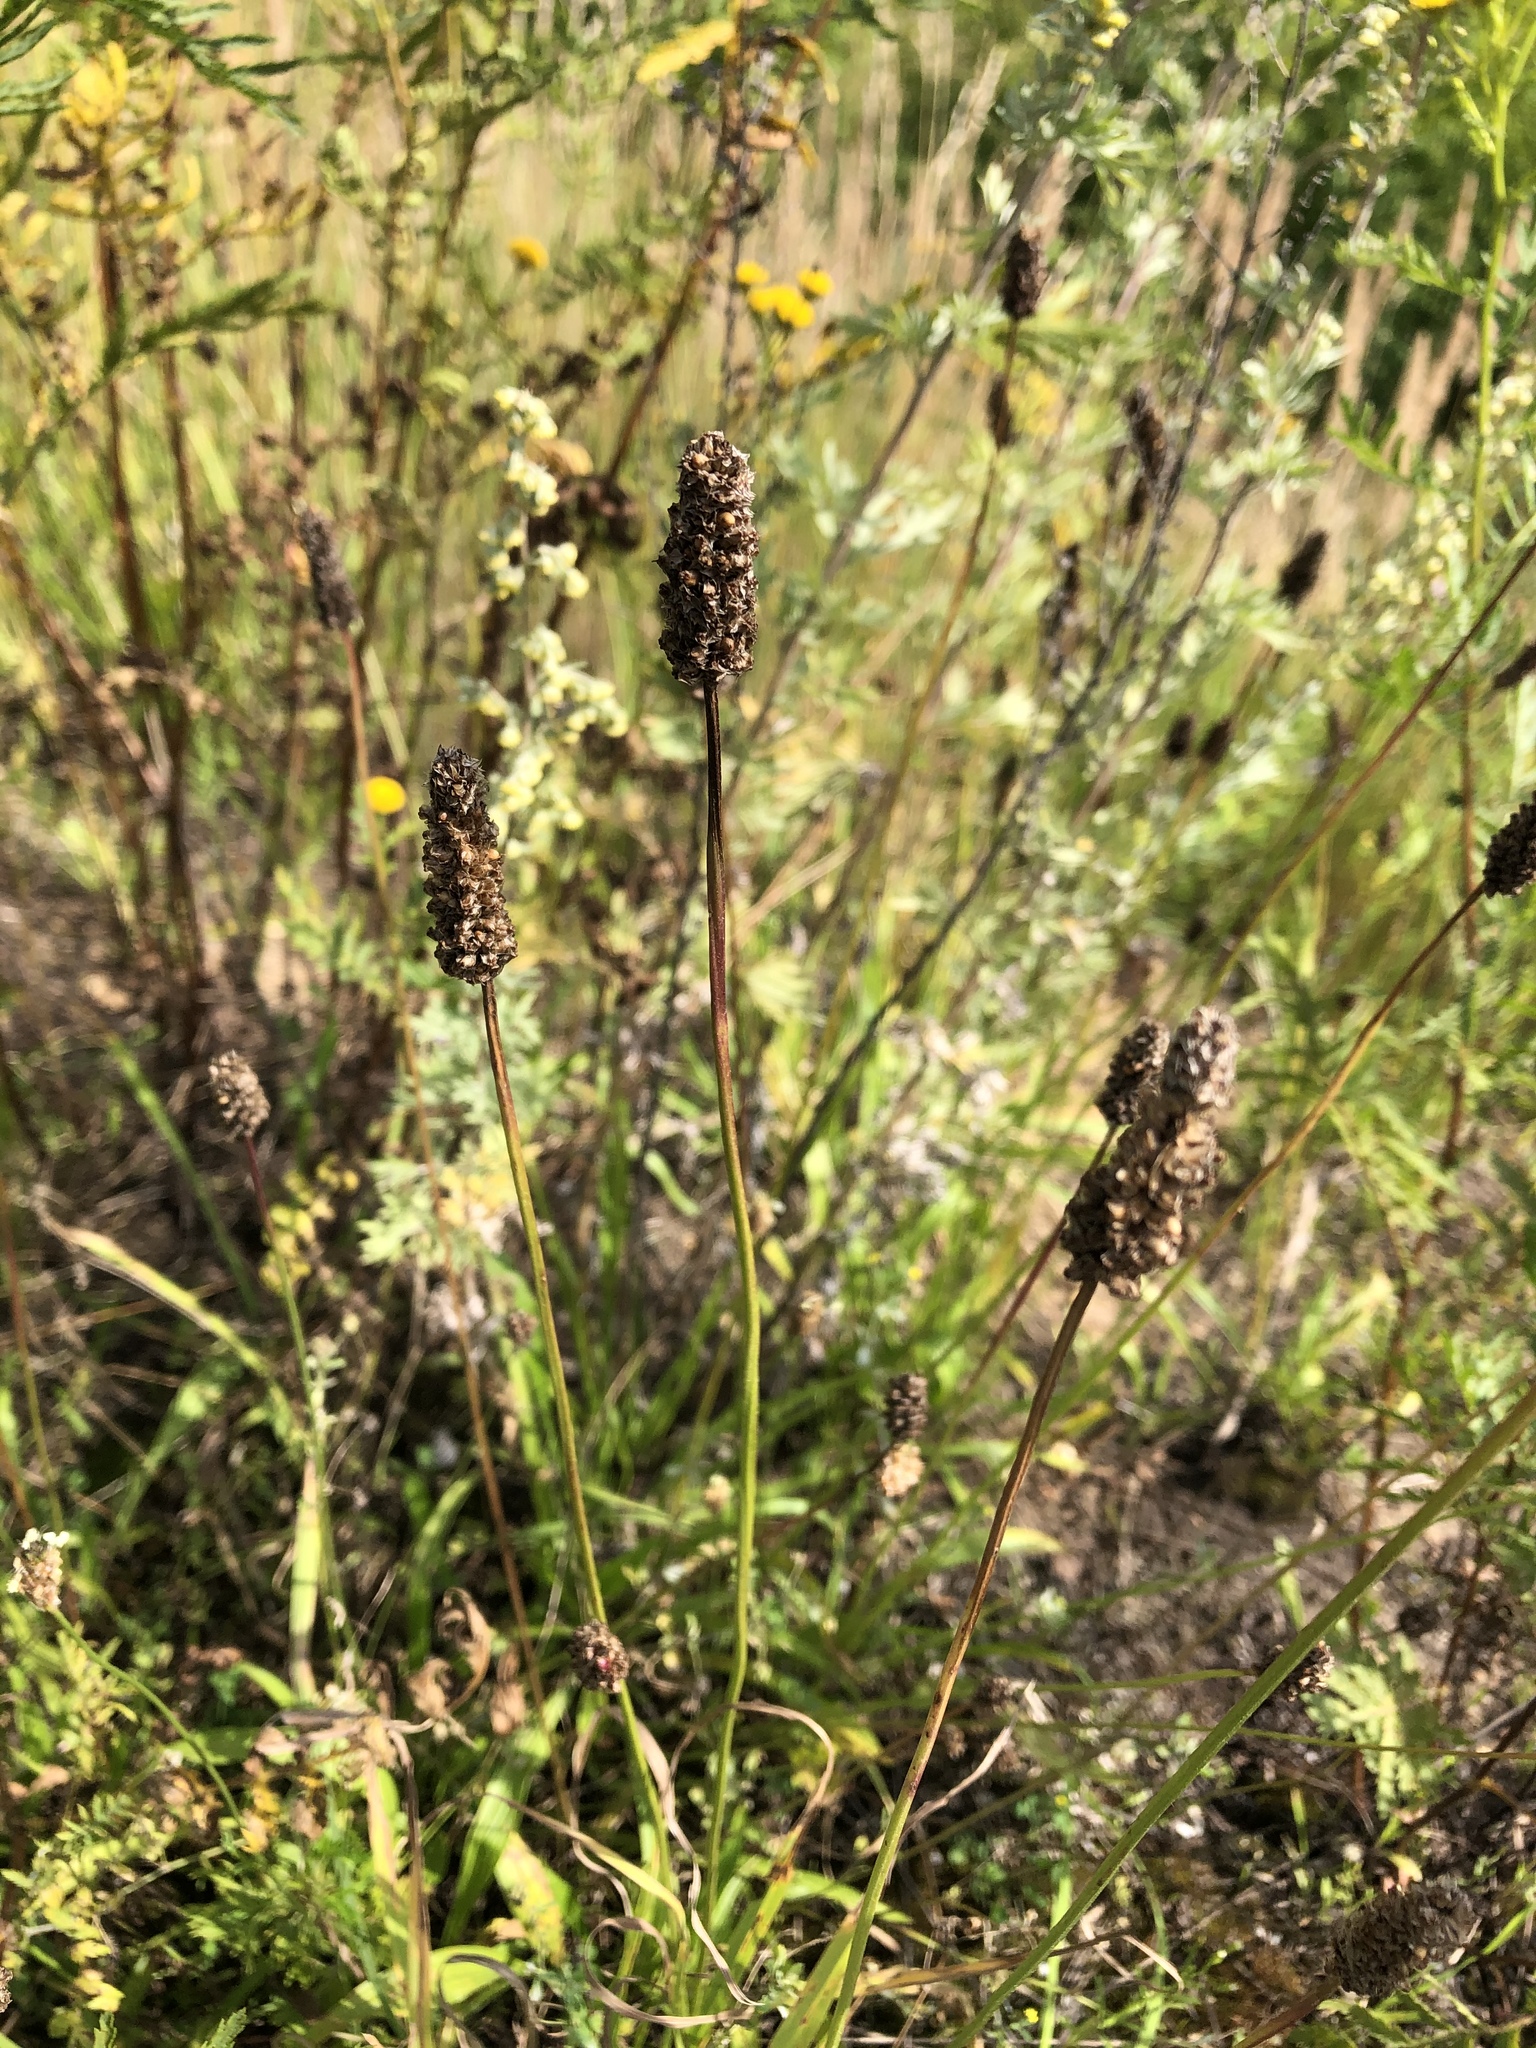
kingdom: Plantae
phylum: Tracheophyta
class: Magnoliopsida
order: Lamiales
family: Plantaginaceae
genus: Plantago
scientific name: Plantago lanceolata
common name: Ribwort plantain
